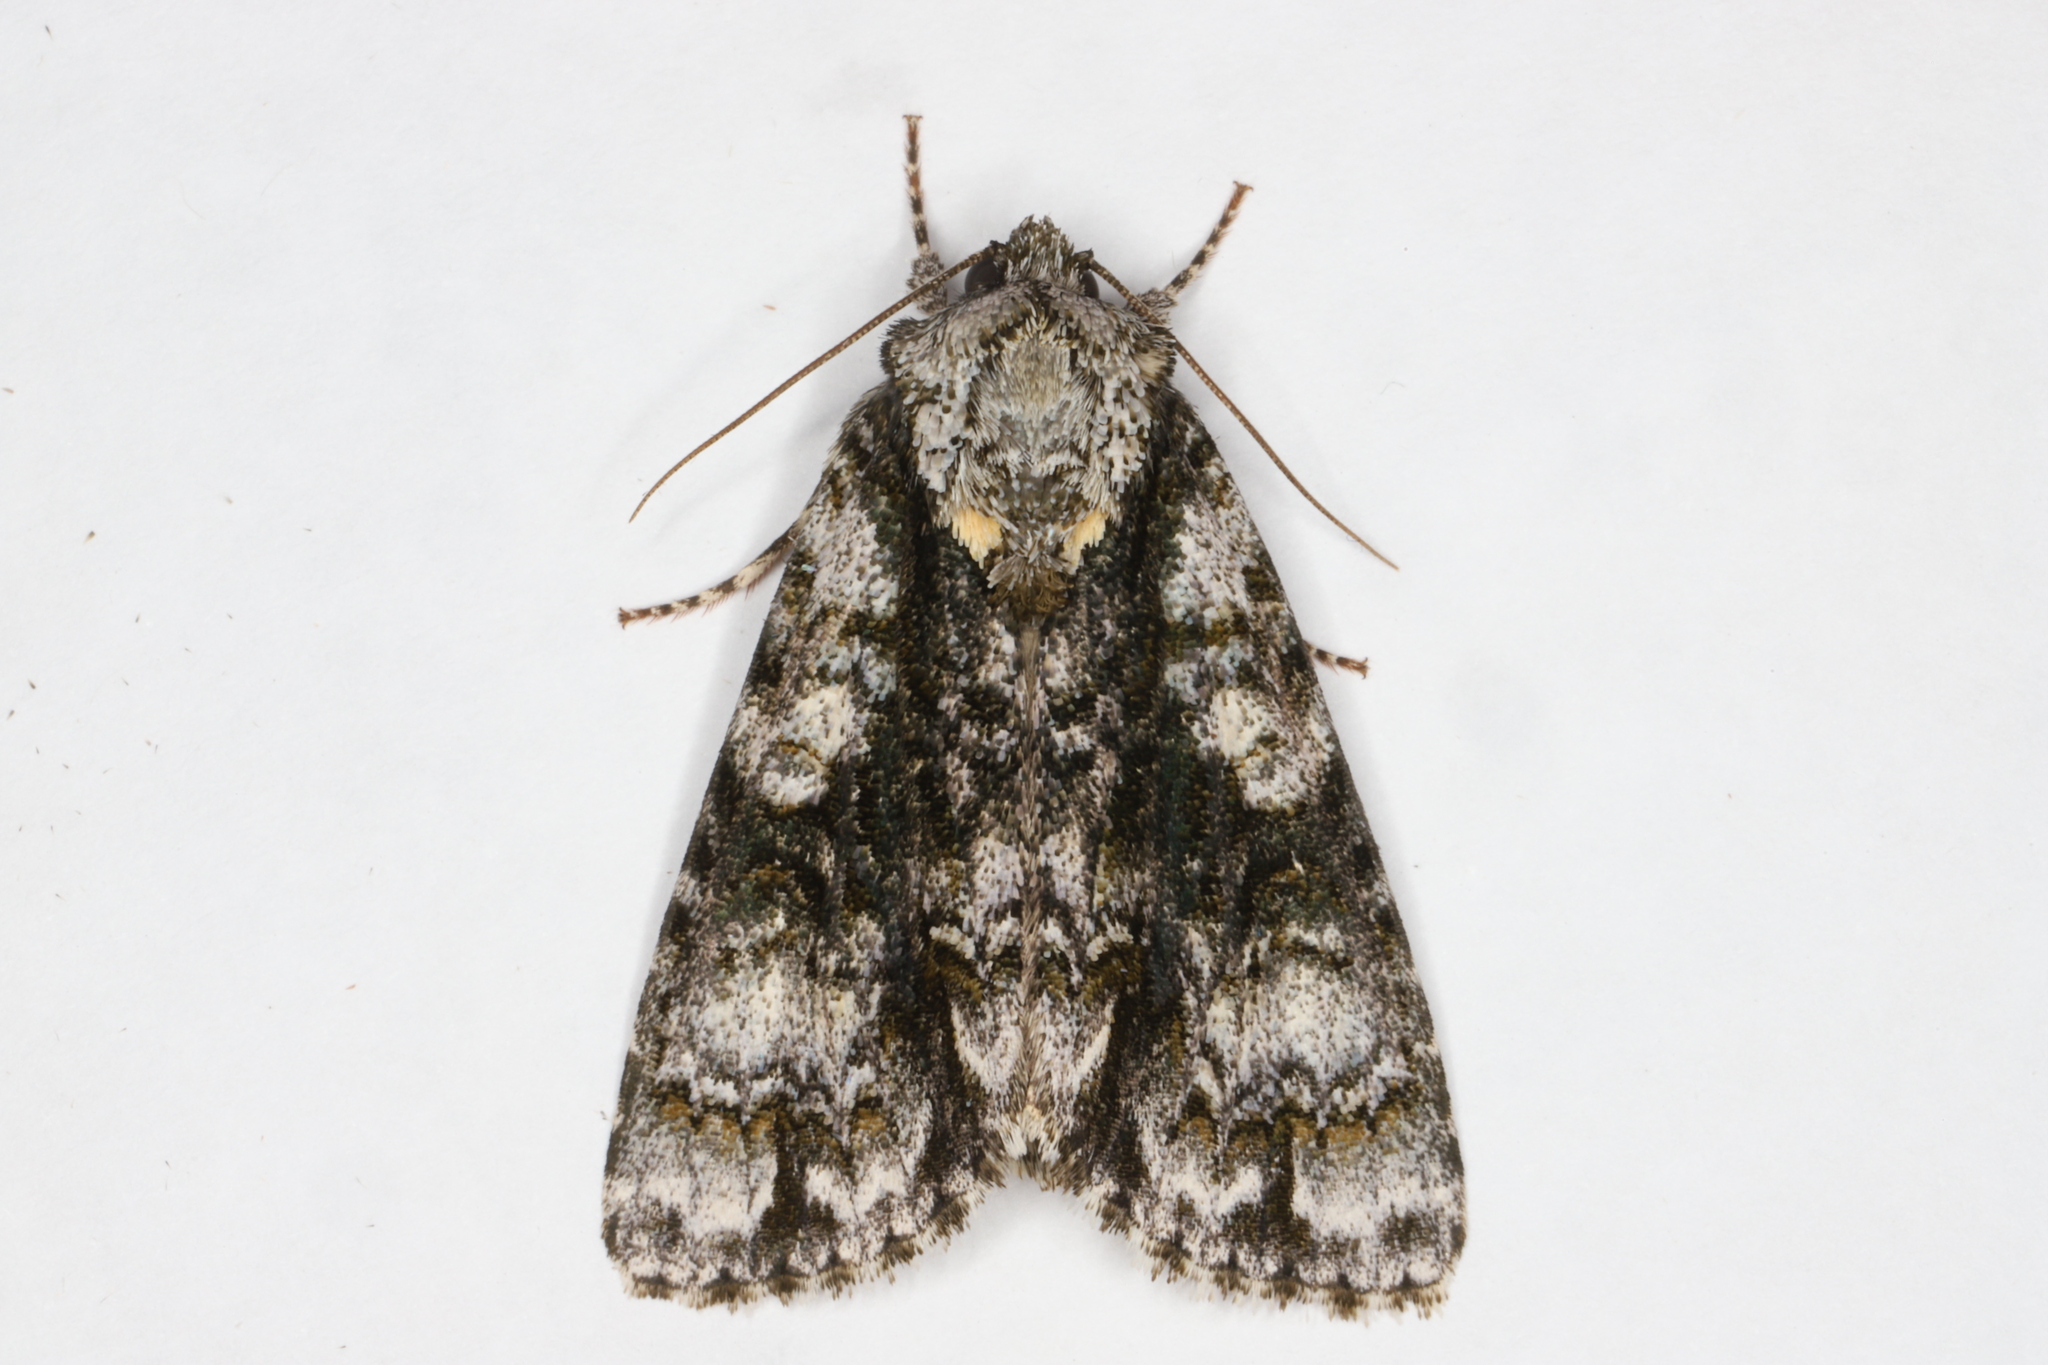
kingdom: Animalia
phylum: Arthropoda
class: Insecta
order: Lepidoptera
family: Noctuidae
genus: Acronicta
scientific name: Acronicta superans
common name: Splendid dagger
